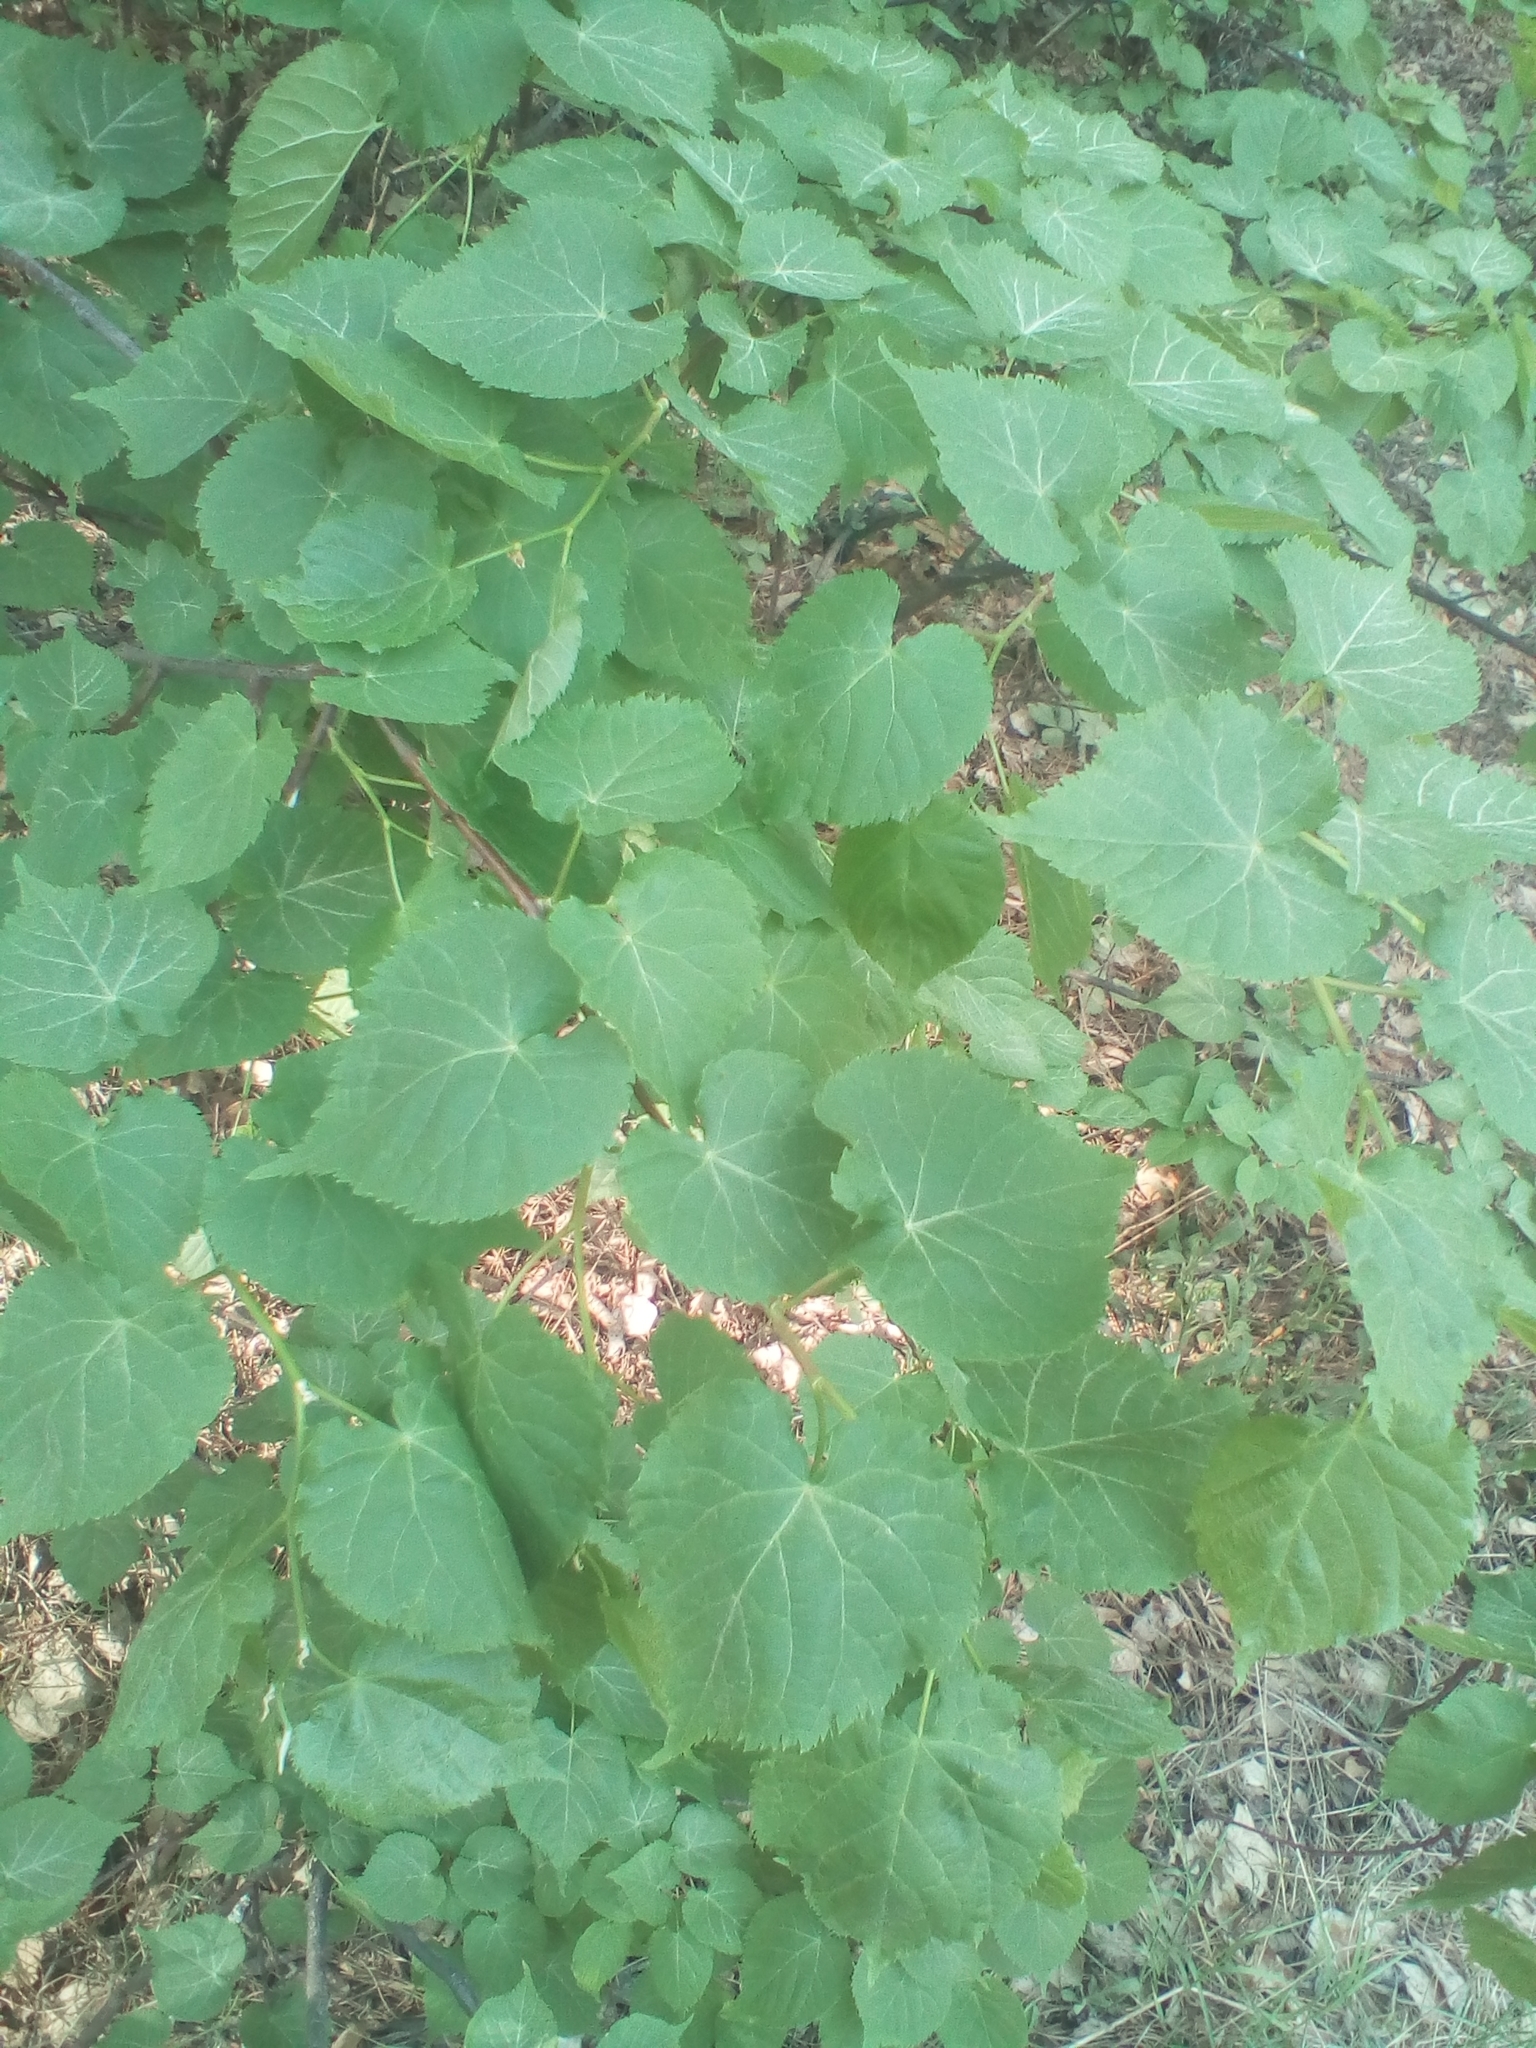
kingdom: Plantae
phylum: Tracheophyta
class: Magnoliopsida
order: Malvales
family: Malvaceae
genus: Tilia
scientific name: Tilia cordata
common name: Small-leaved lime
